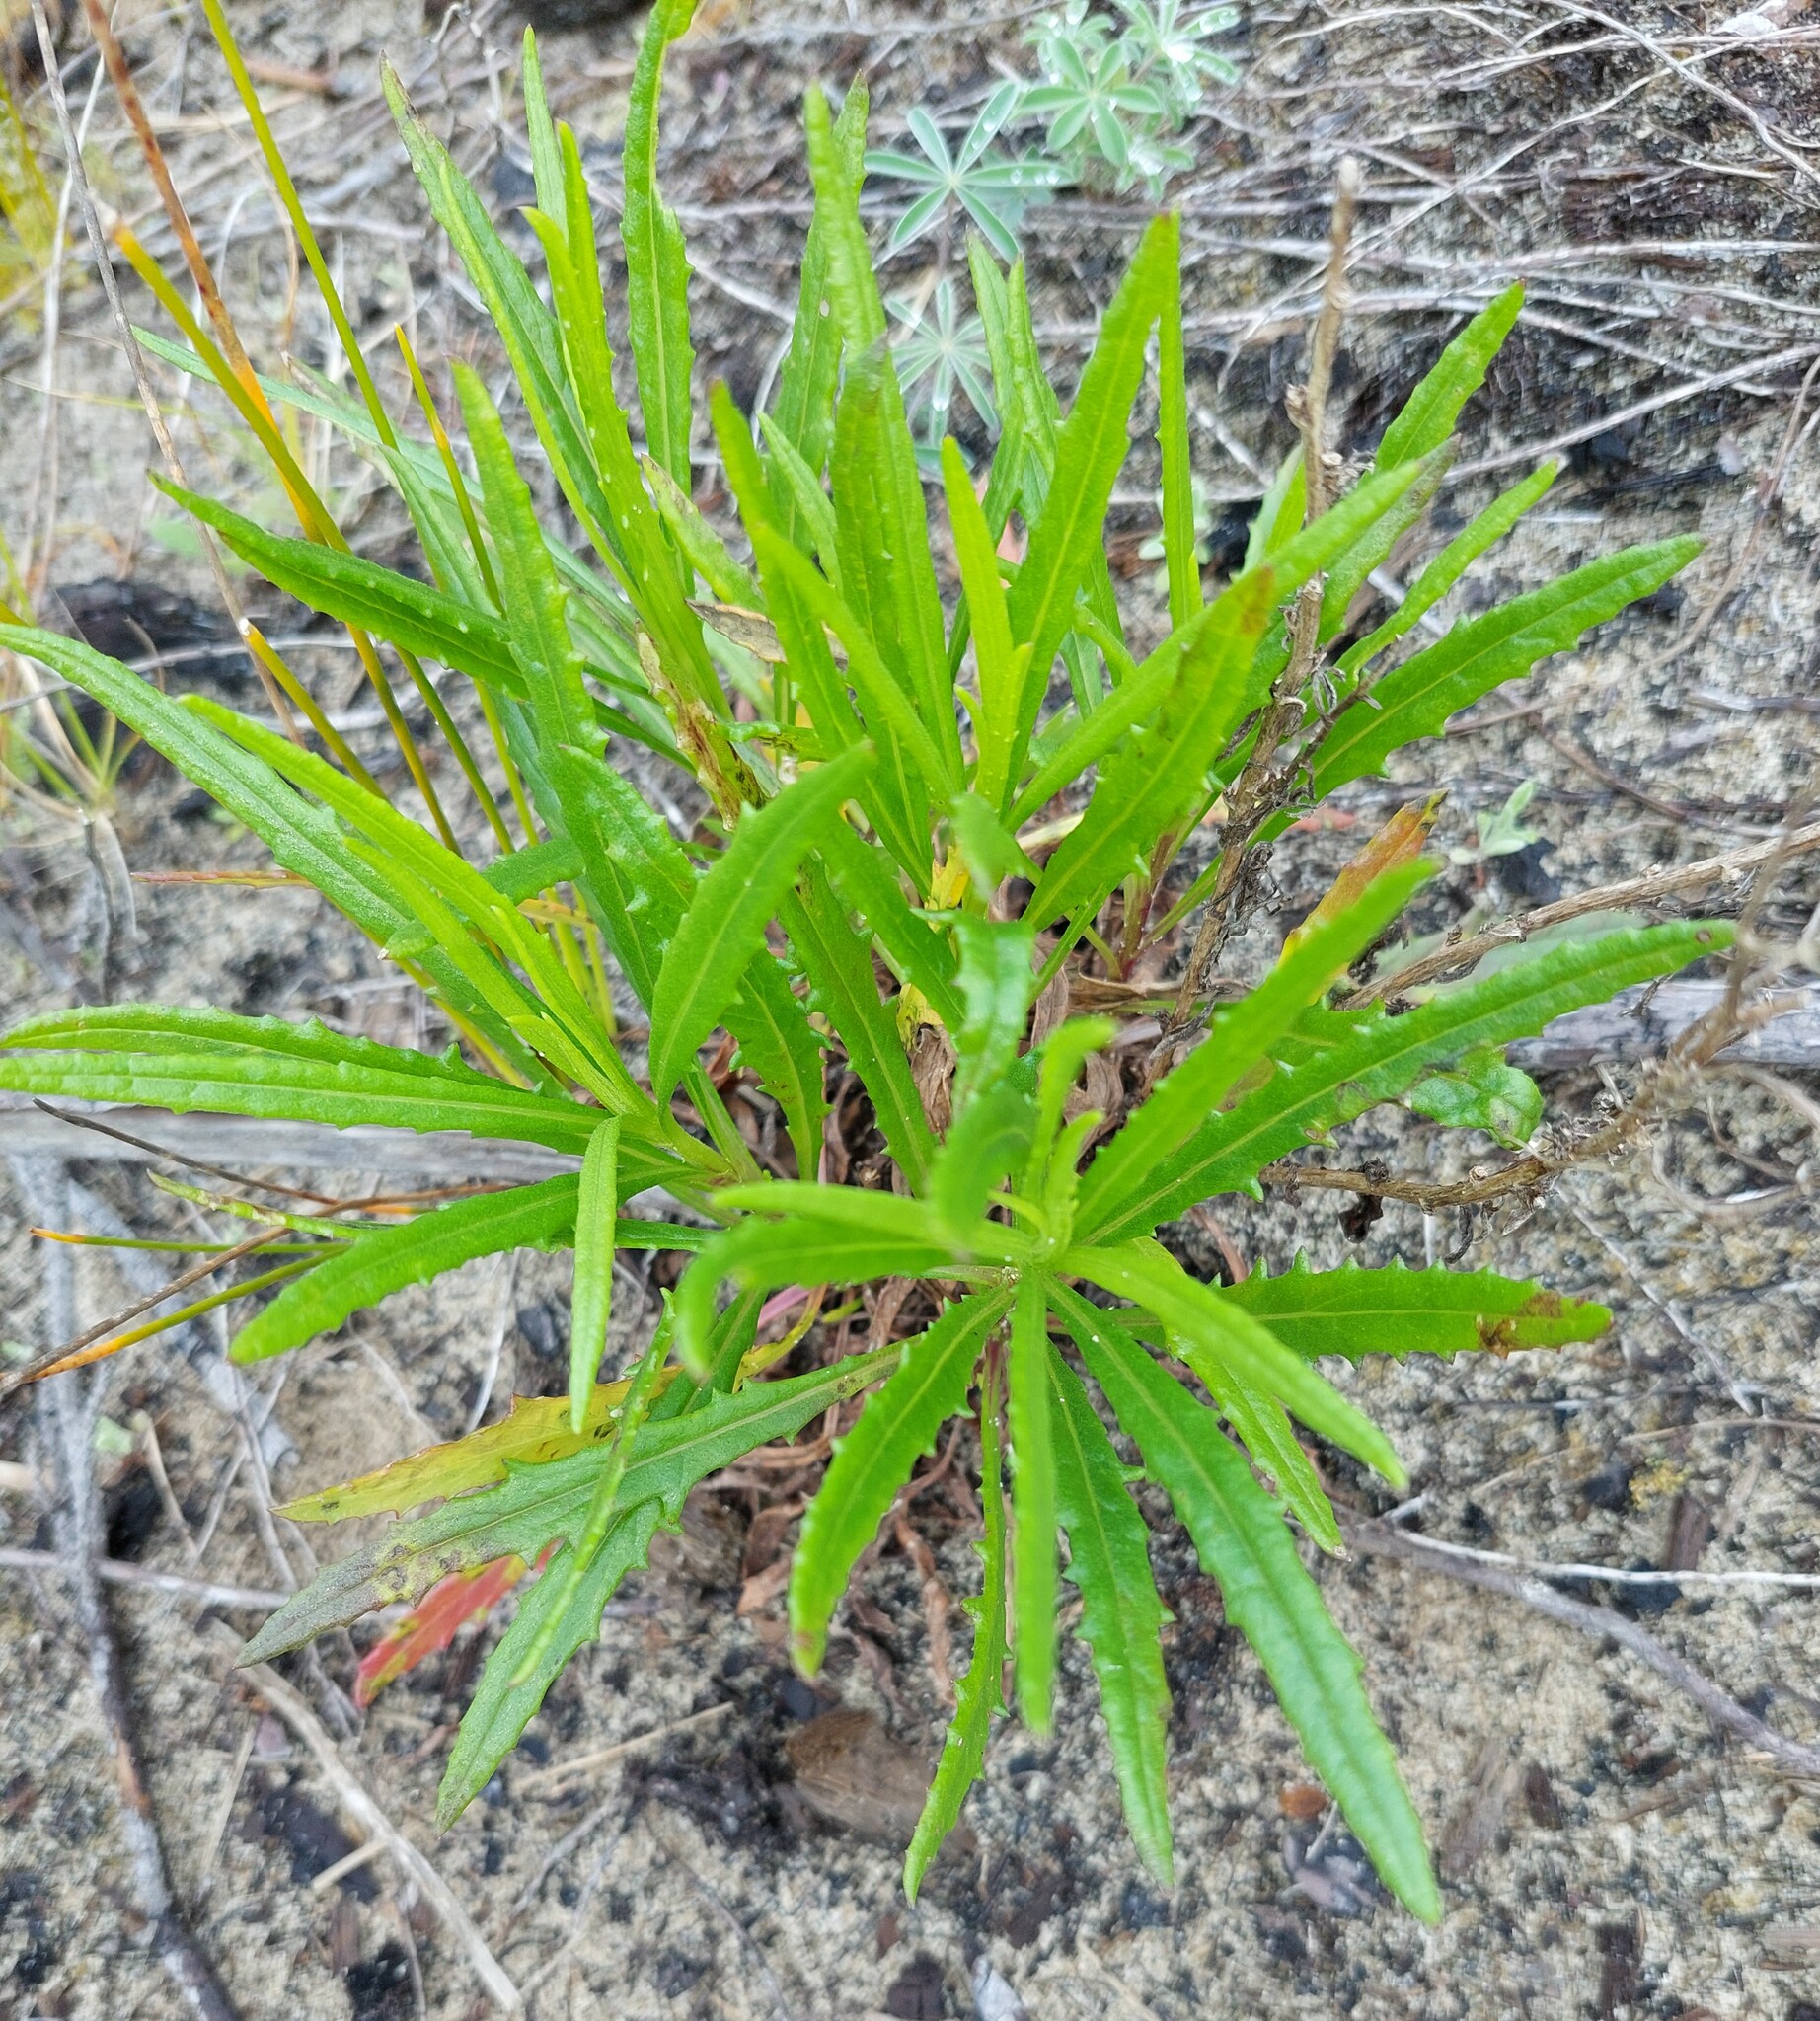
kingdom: Plantae
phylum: Tracheophyta
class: Magnoliopsida
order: Asterales
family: Asteraceae
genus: Senecio
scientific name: Senecio diaschides
